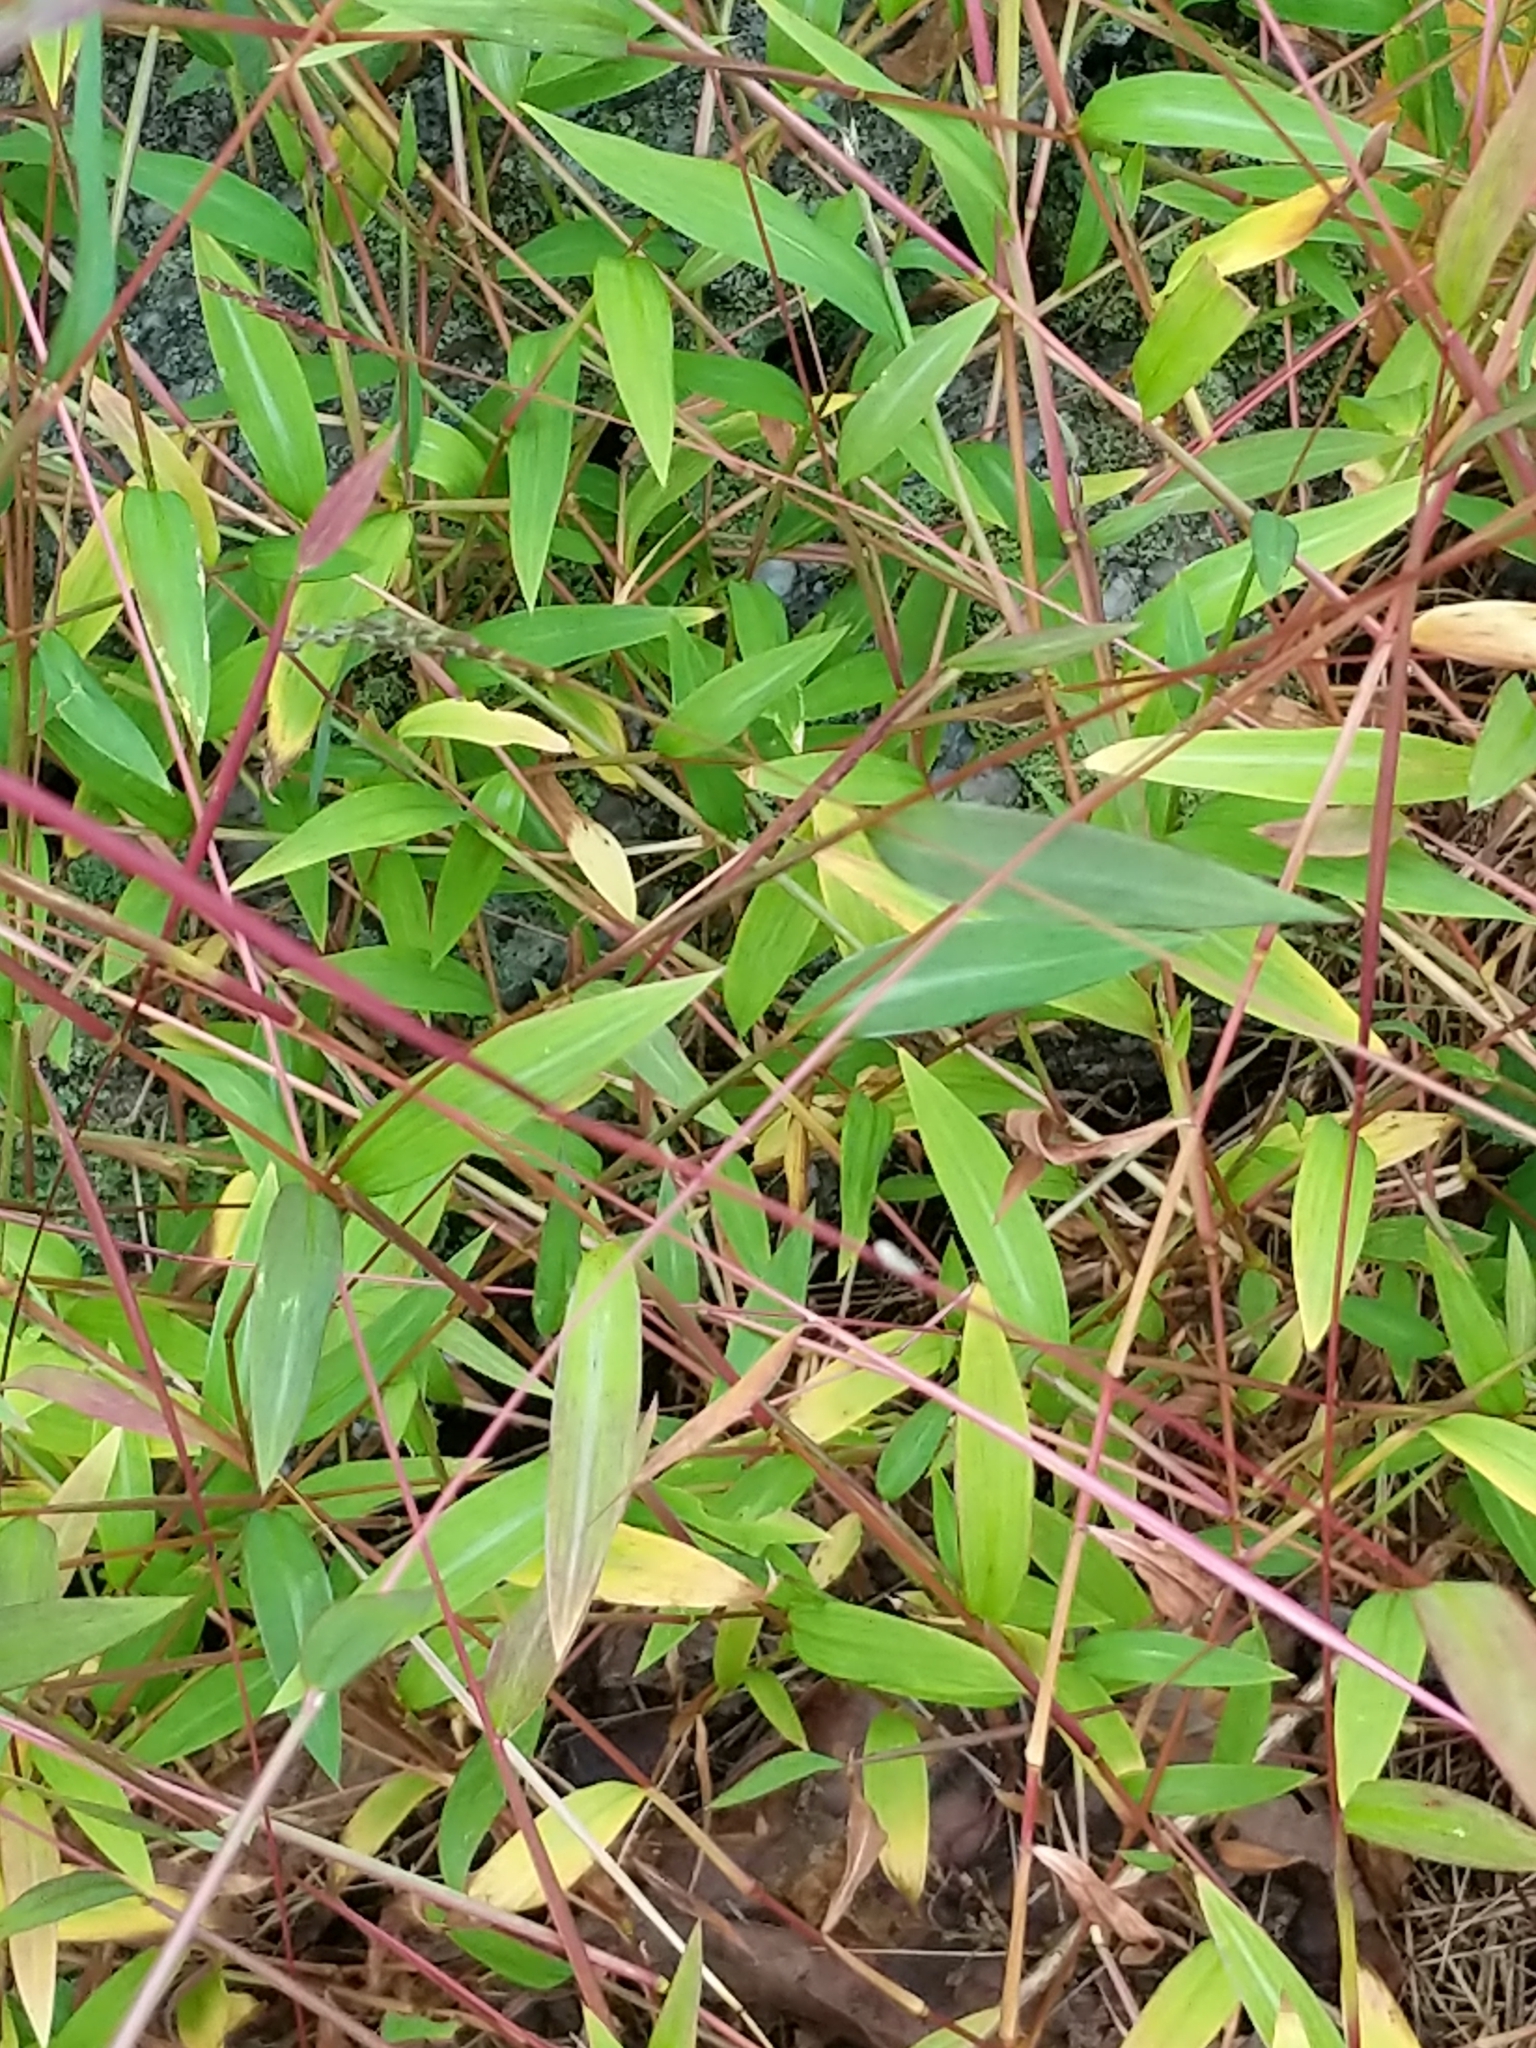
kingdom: Plantae
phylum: Tracheophyta
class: Liliopsida
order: Poales
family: Poaceae
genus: Microstegium
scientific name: Microstegium vimineum
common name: Japanese stiltgrass
